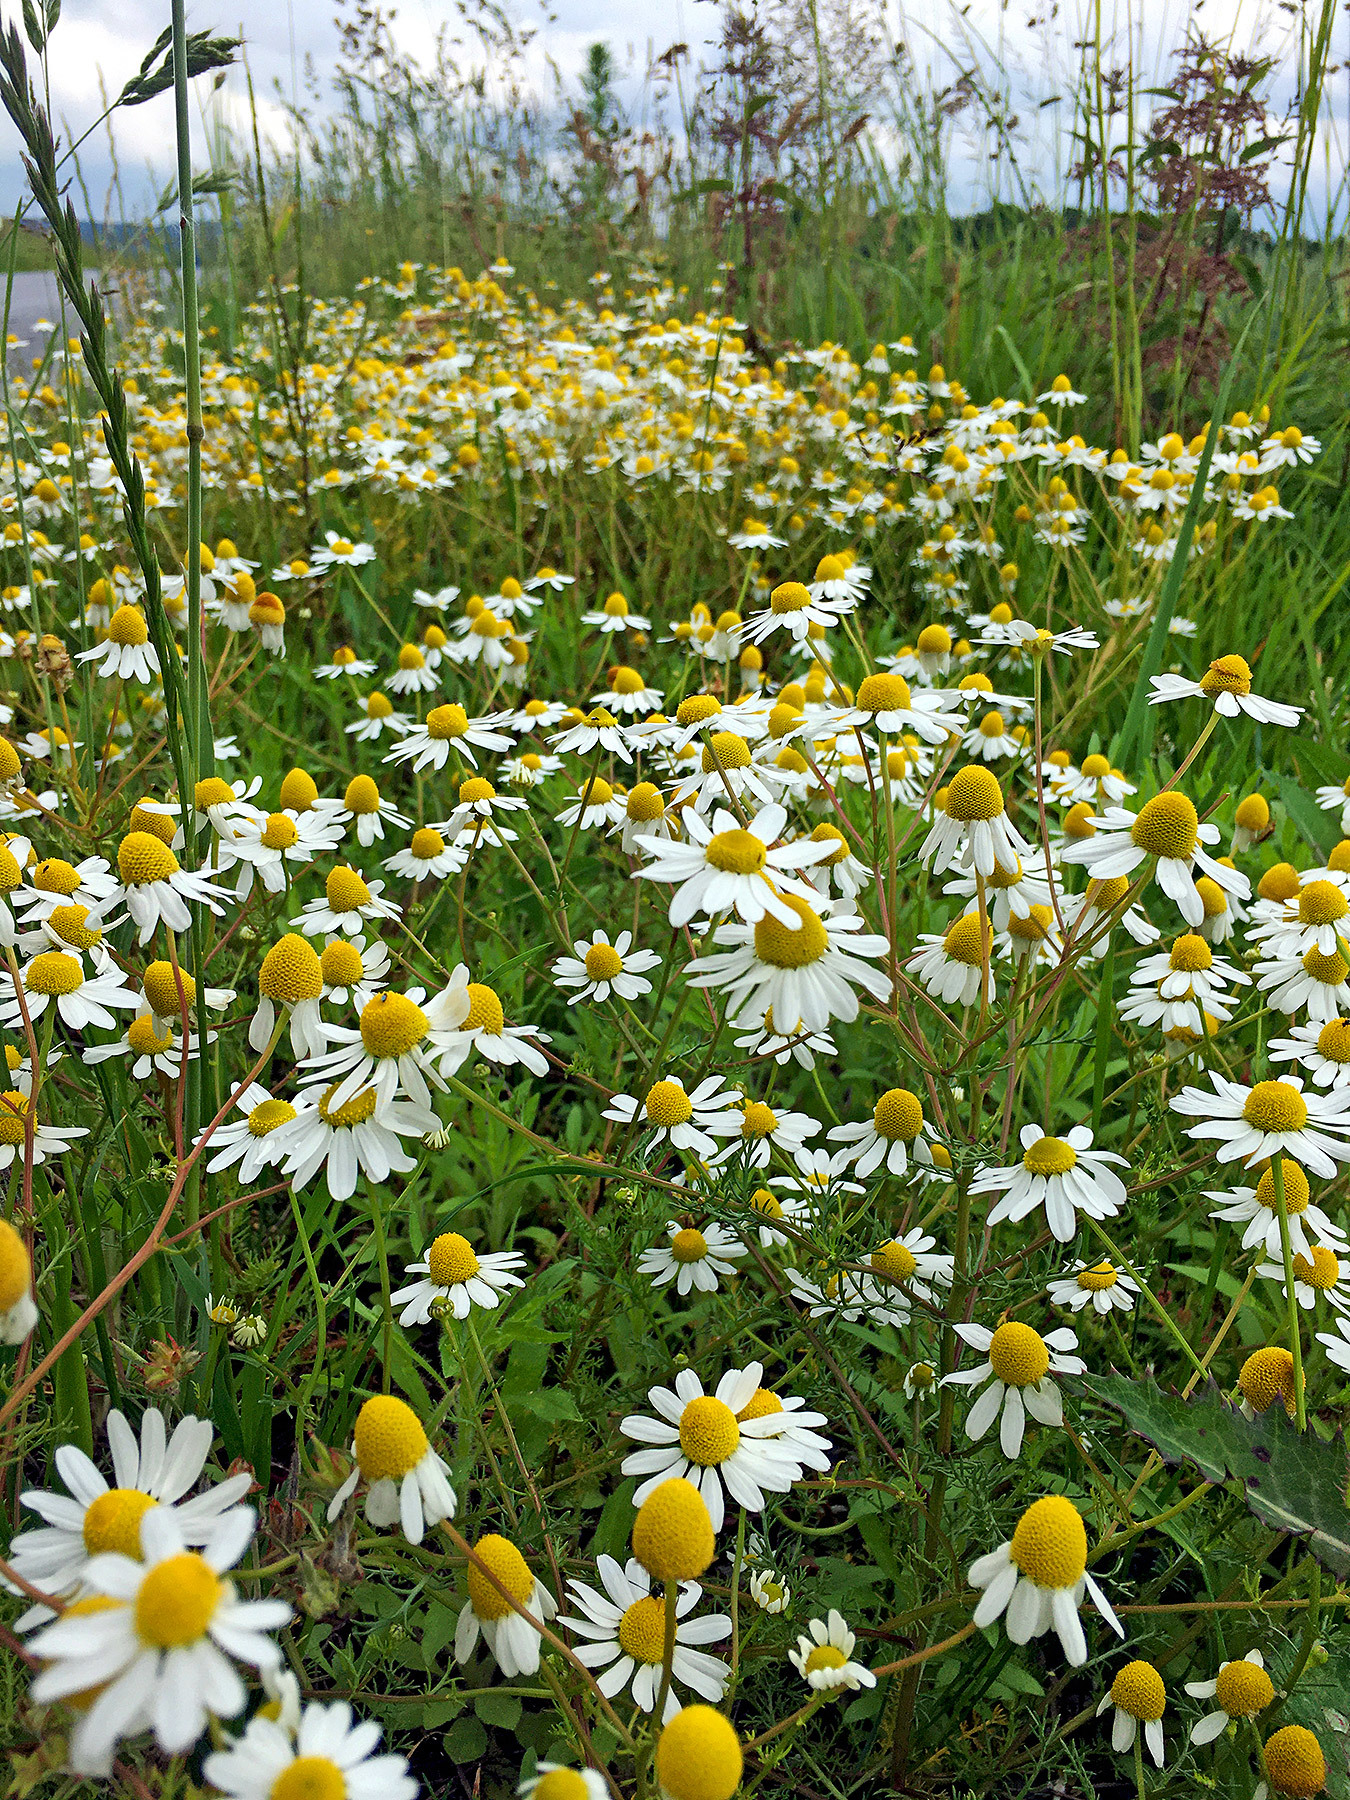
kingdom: Plantae
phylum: Tracheophyta
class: Magnoliopsida
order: Asterales
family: Asteraceae
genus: Matricaria
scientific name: Matricaria chamomilla
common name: Scented mayweed
